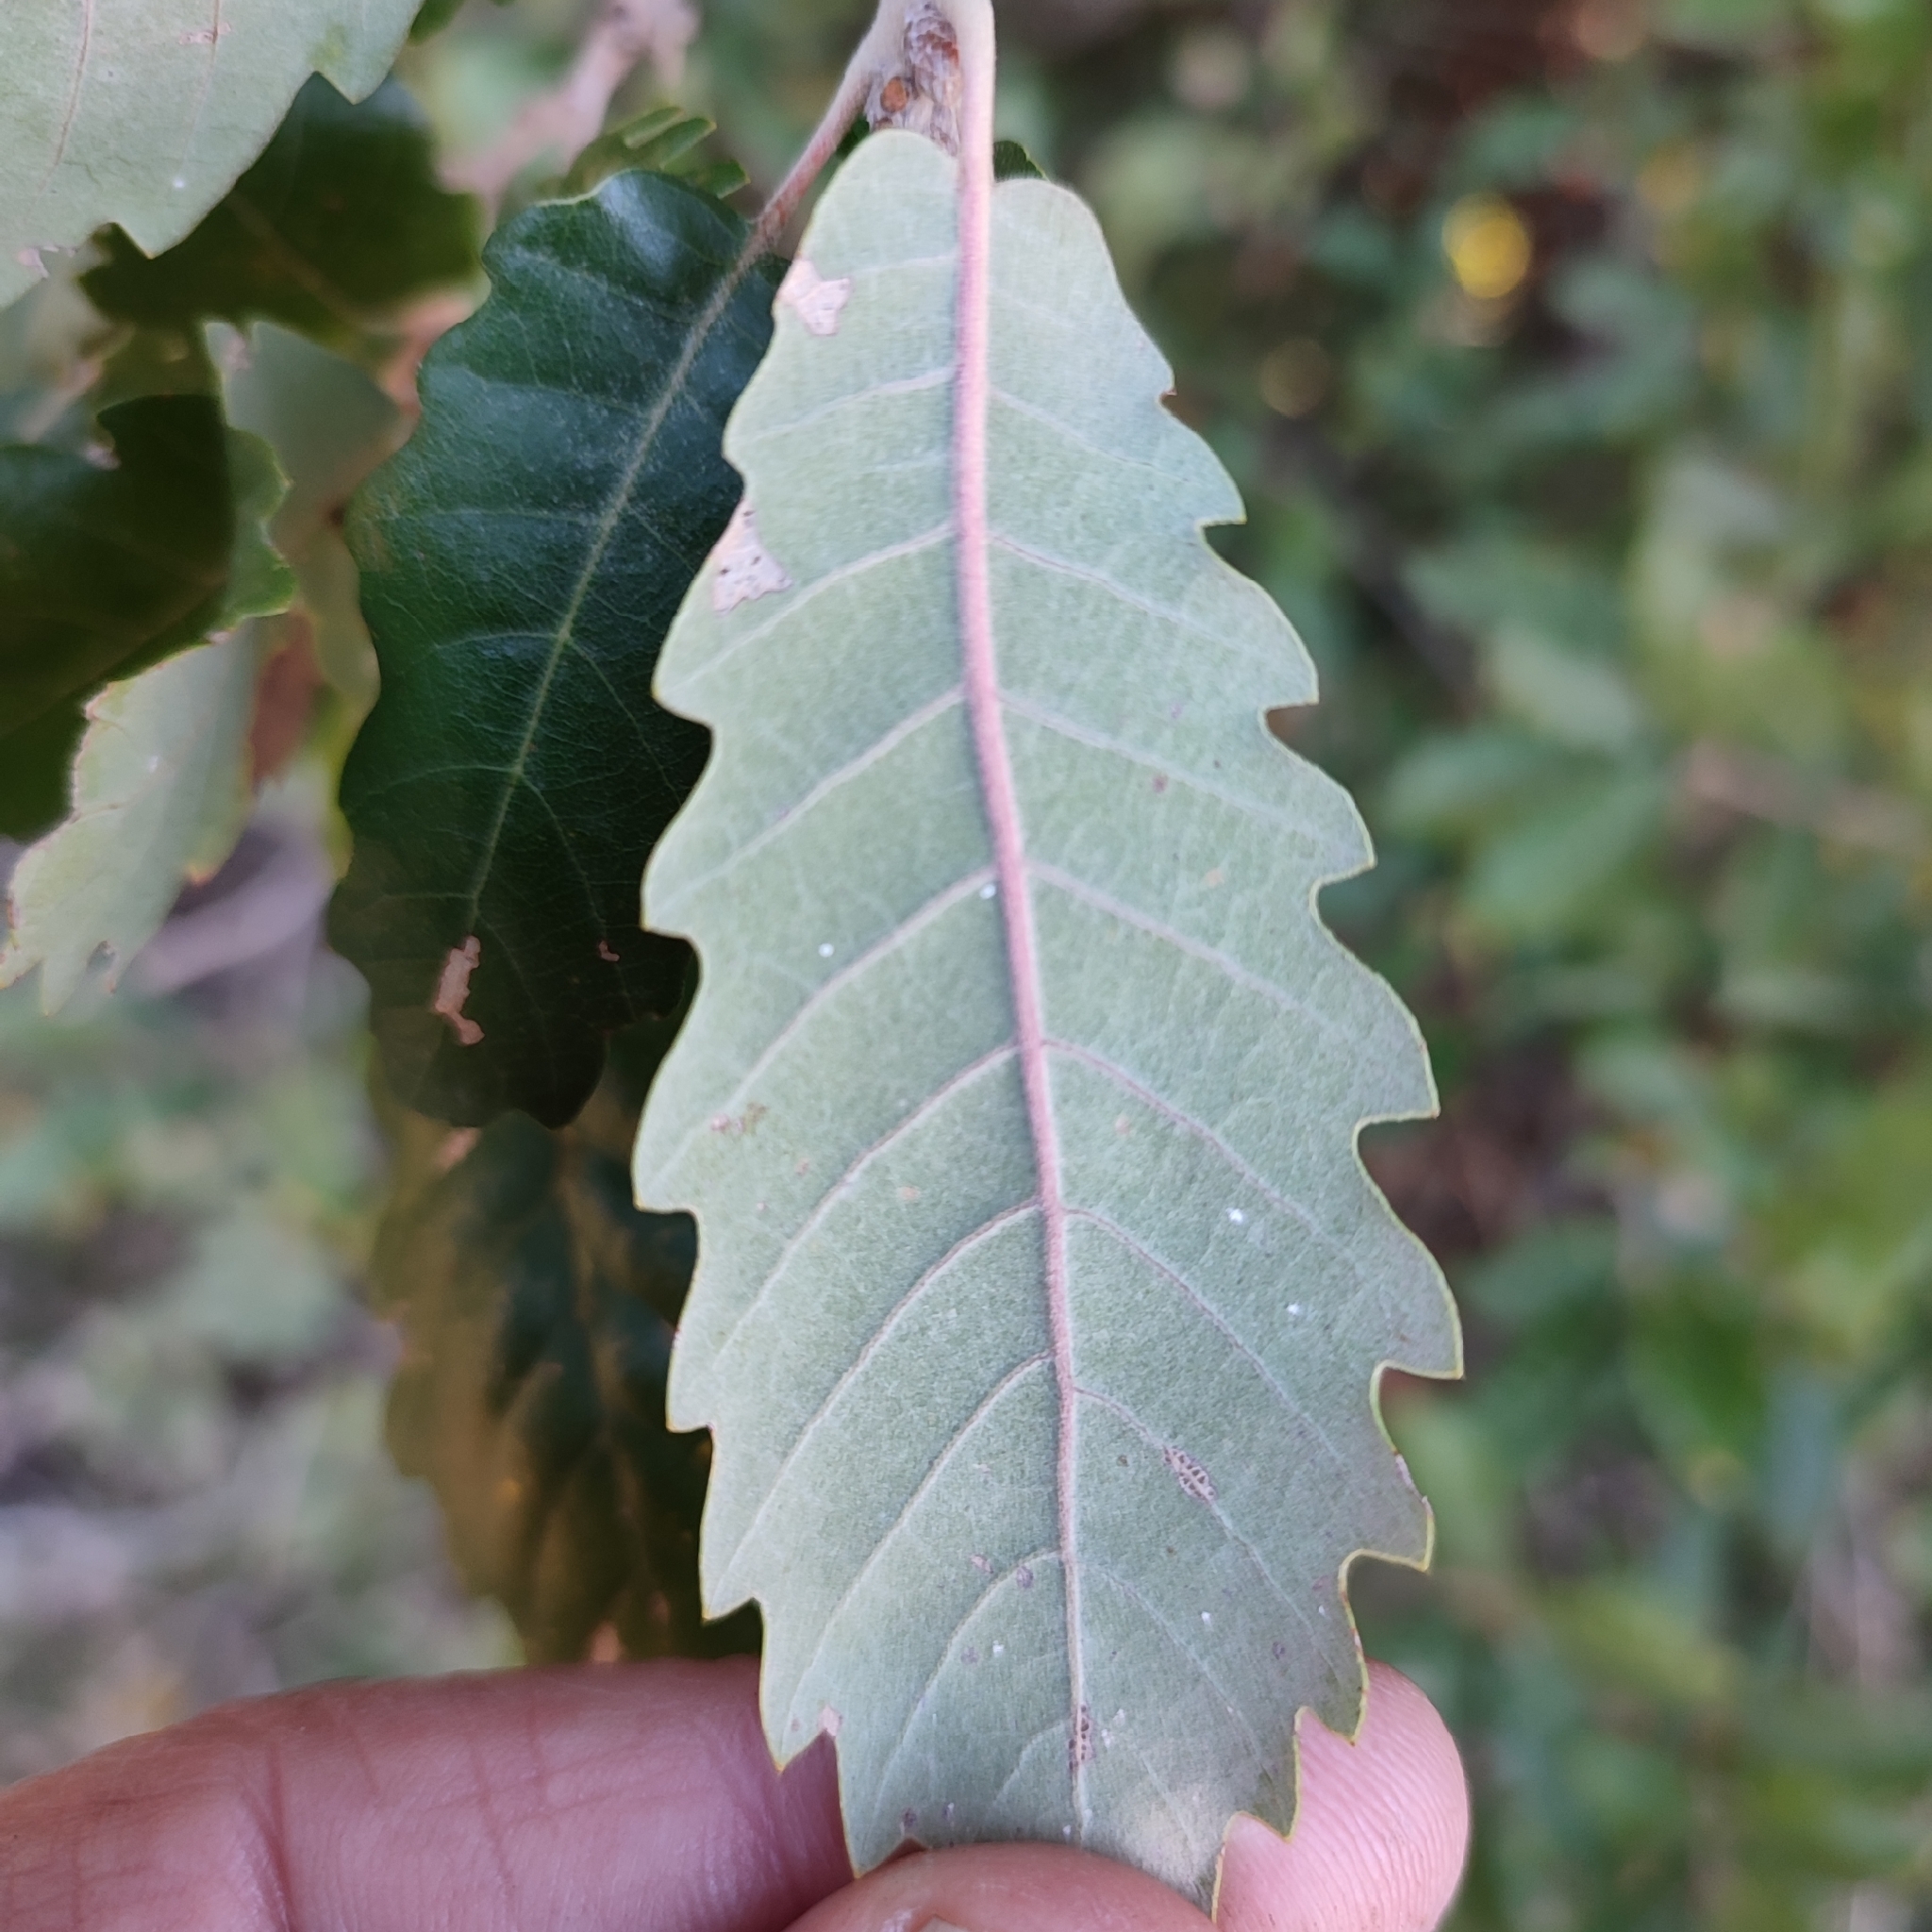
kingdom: Plantae
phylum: Tracheophyta
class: Magnoliopsida
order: Fagales
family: Fagaceae
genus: Quercus
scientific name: Quercus faginea
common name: Gall oak tree
